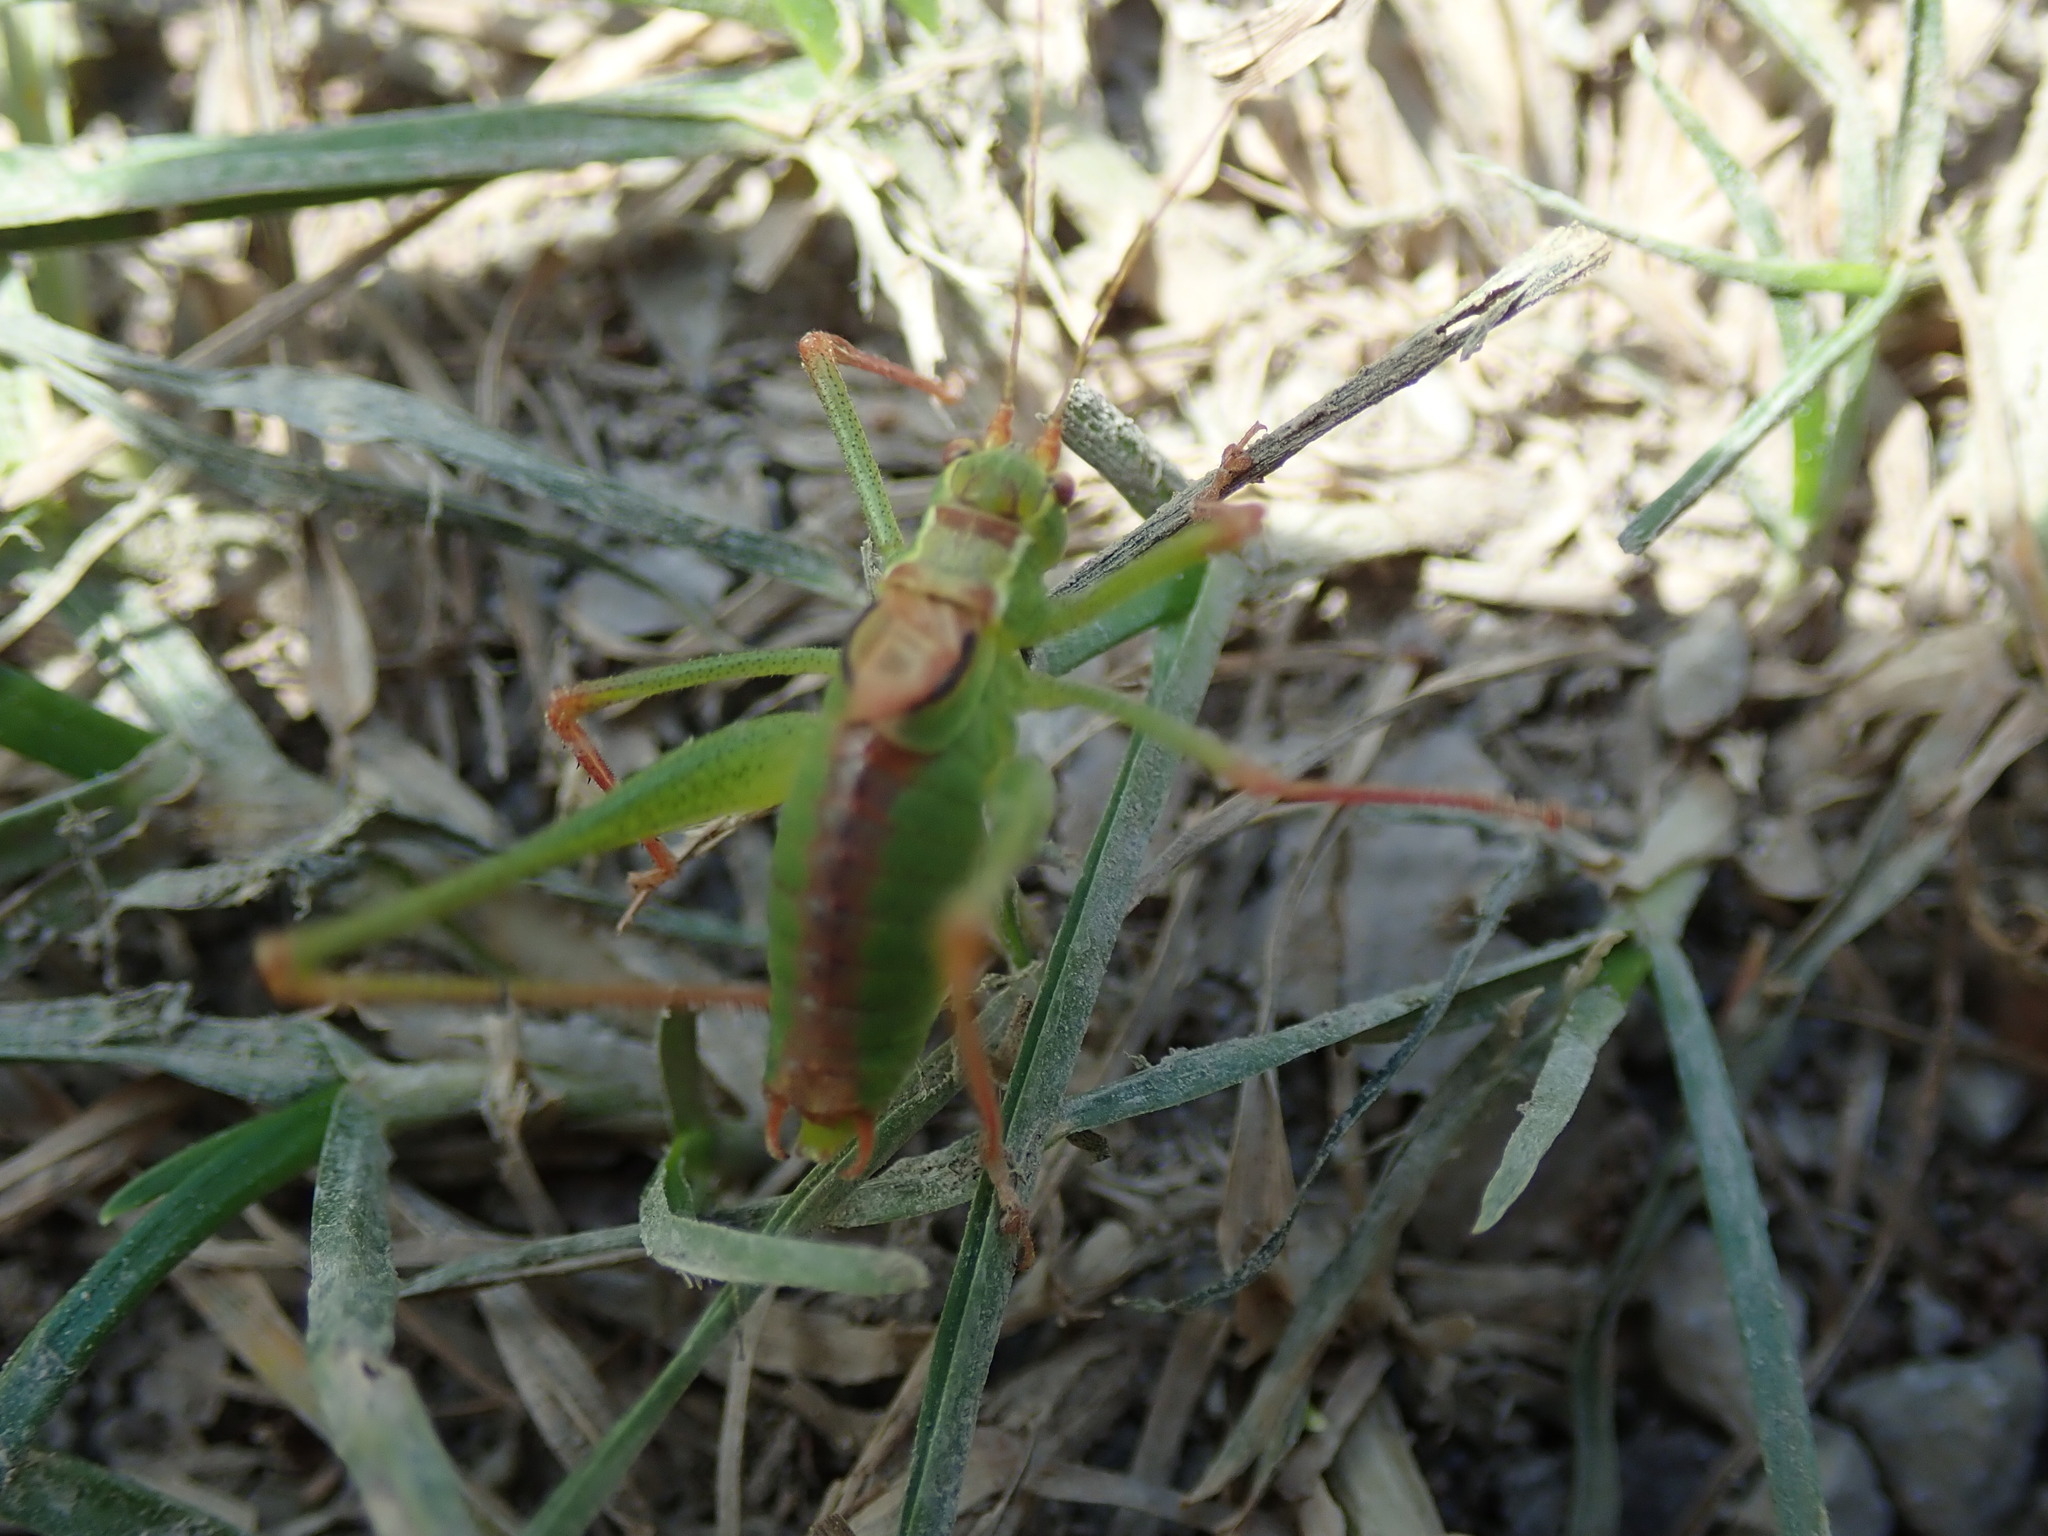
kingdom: Animalia
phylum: Arthropoda
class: Insecta
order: Orthoptera
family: Tettigoniidae
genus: Leptophyes
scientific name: Leptophyes punctatissima
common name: Speckled bush-cricket
